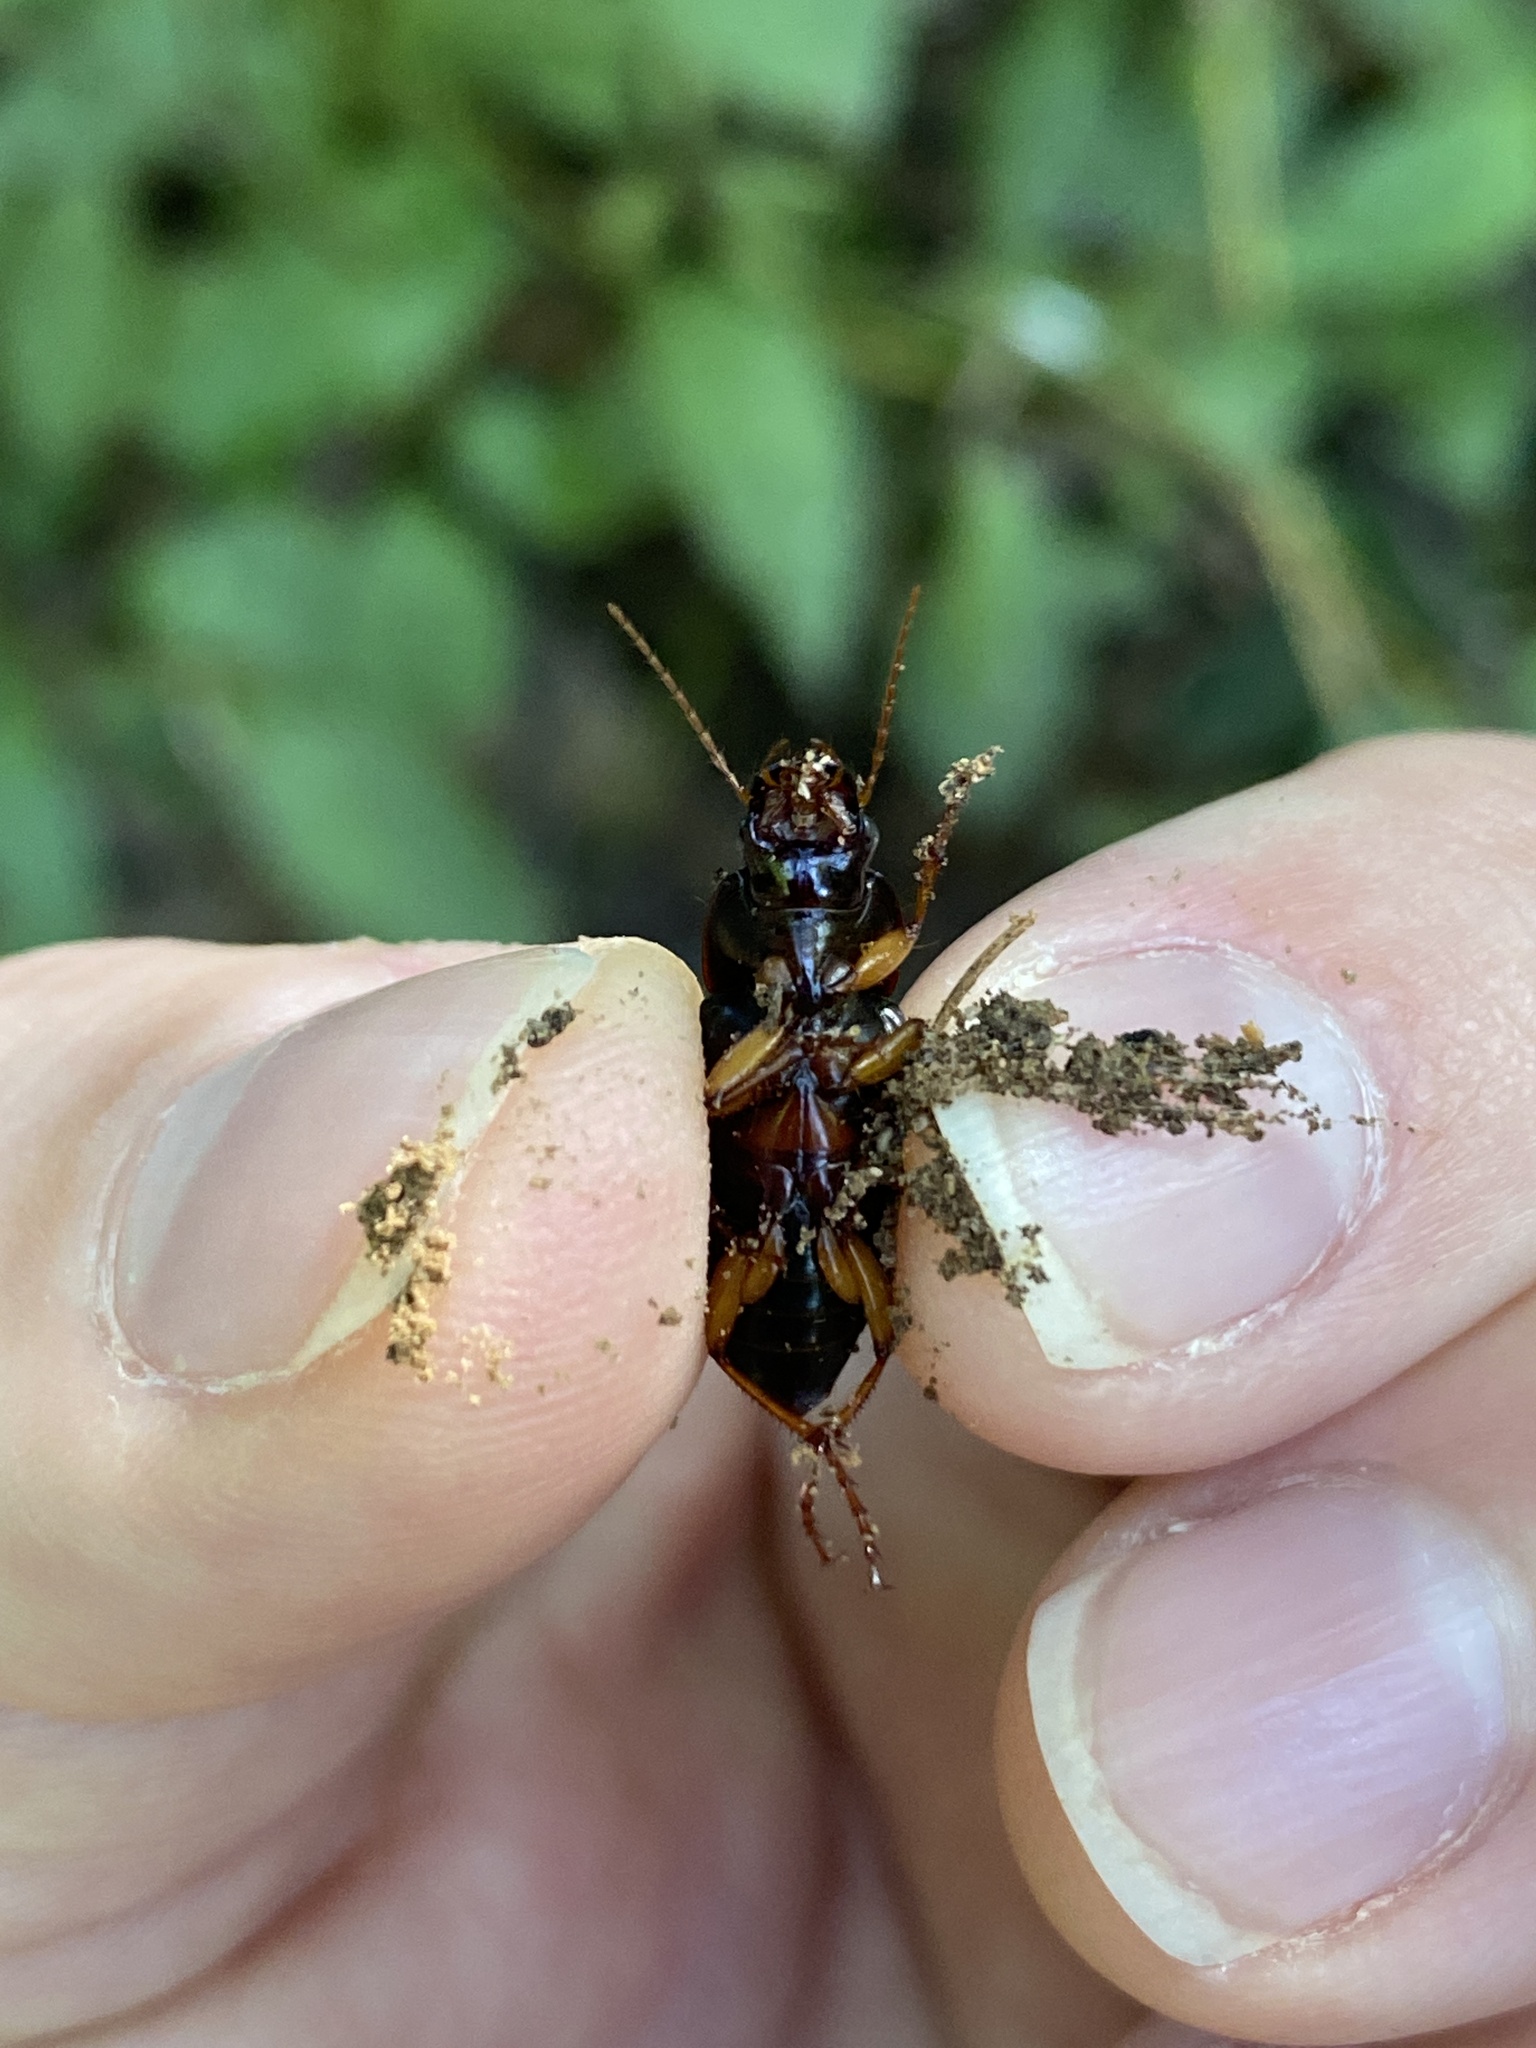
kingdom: Animalia
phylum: Arthropoda
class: Insecta
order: Coleoptera
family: Carabidae
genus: Harpalus
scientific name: Harpalus pensylvanicus
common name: Pennsylvania dingy ground beetle
